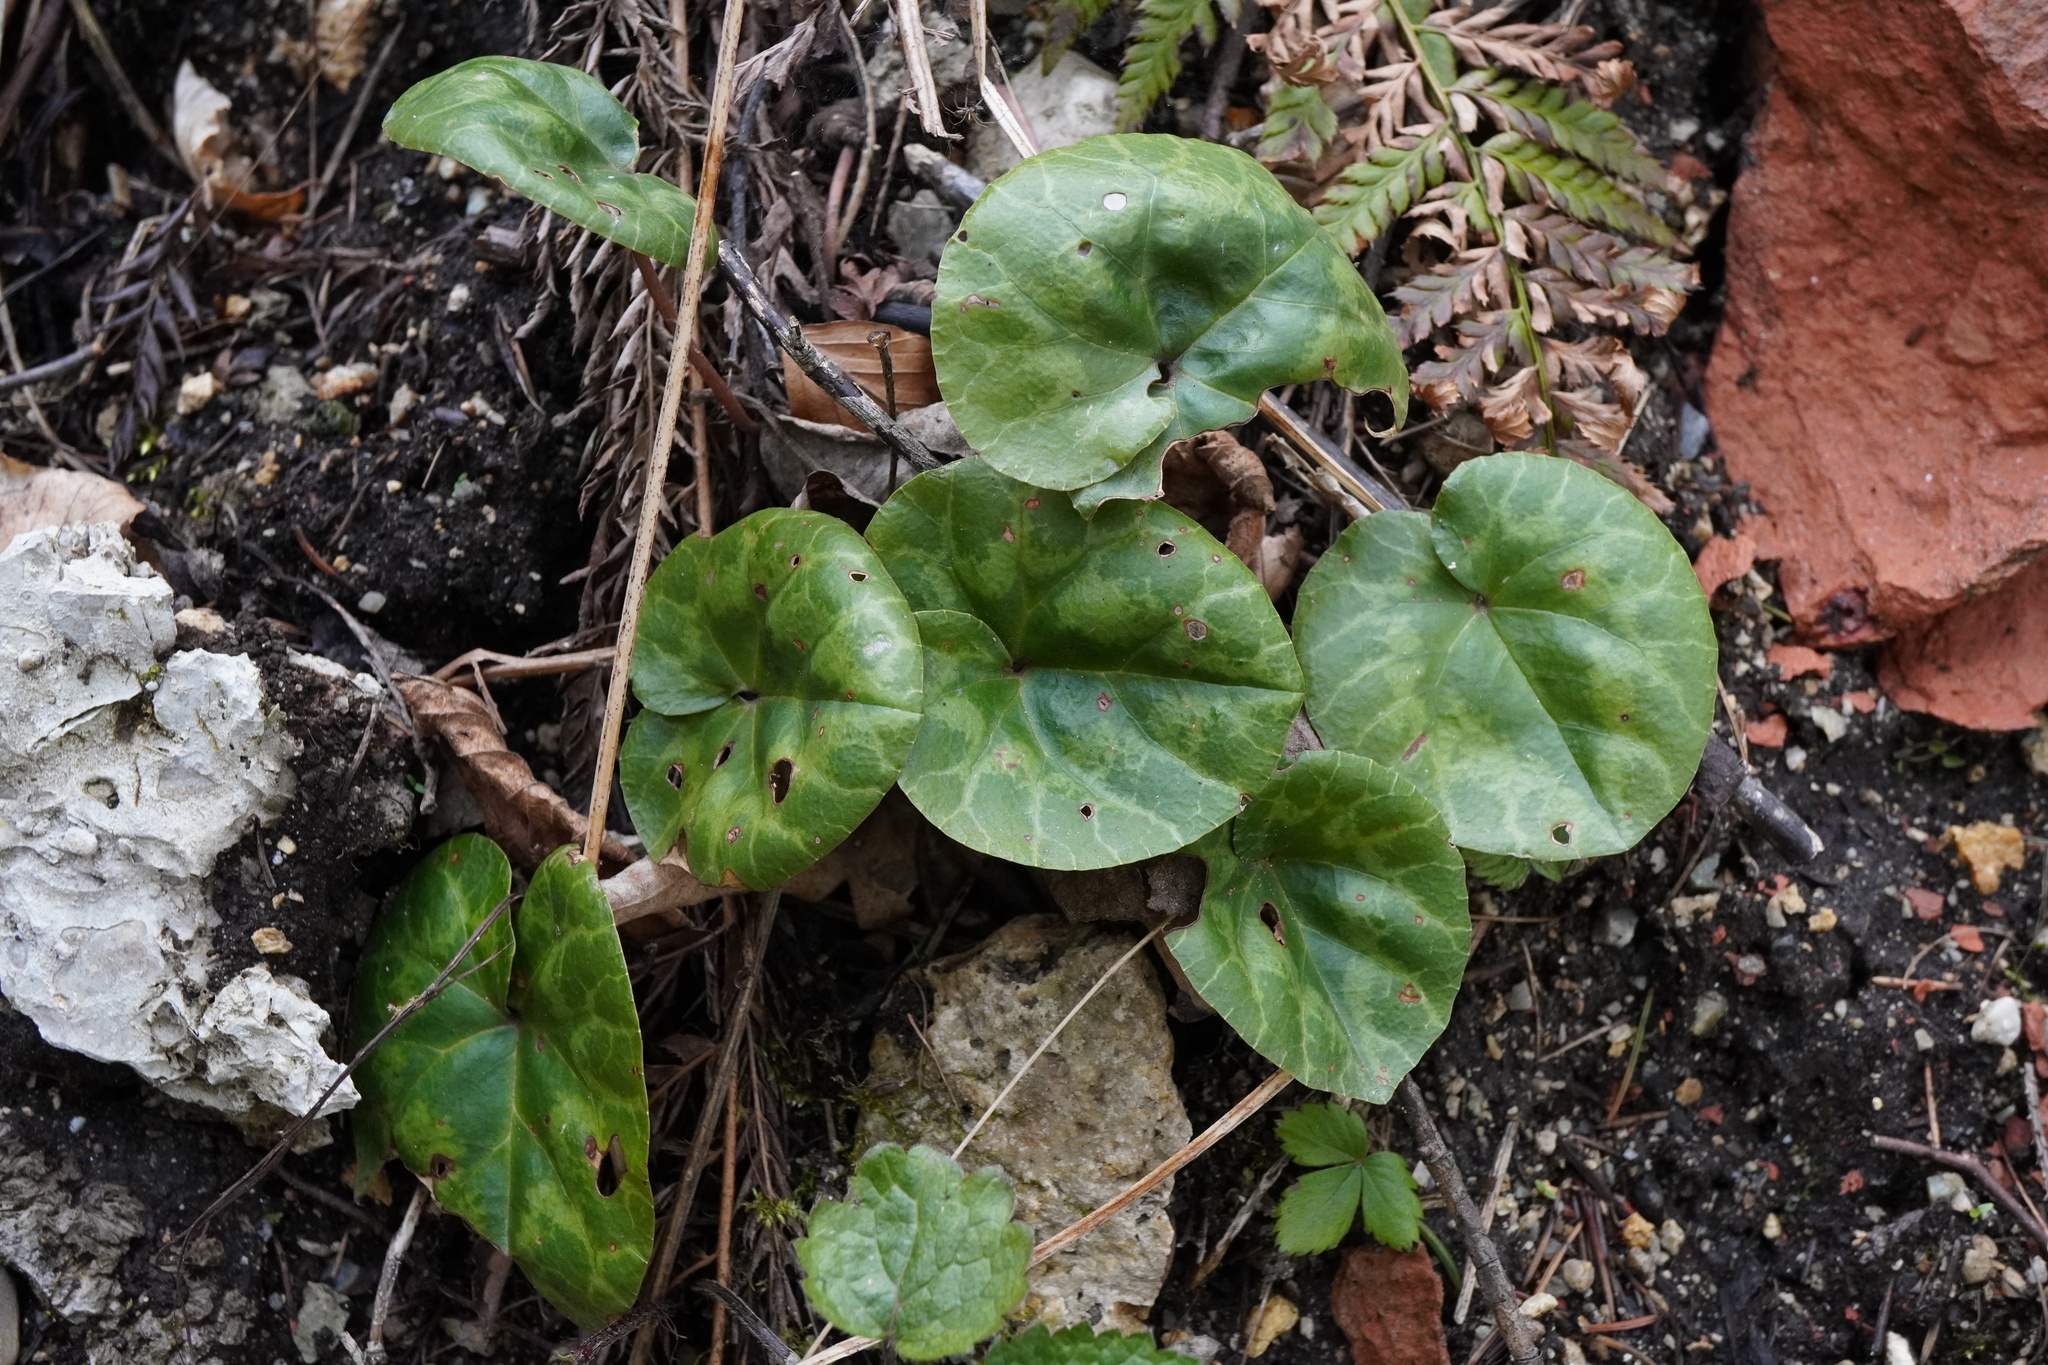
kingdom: Plantae
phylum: Tracheophyta
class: Magnoliopsida
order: Ericales
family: Primulaceae
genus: Cyclamen
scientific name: Cyclamen purpurascens
